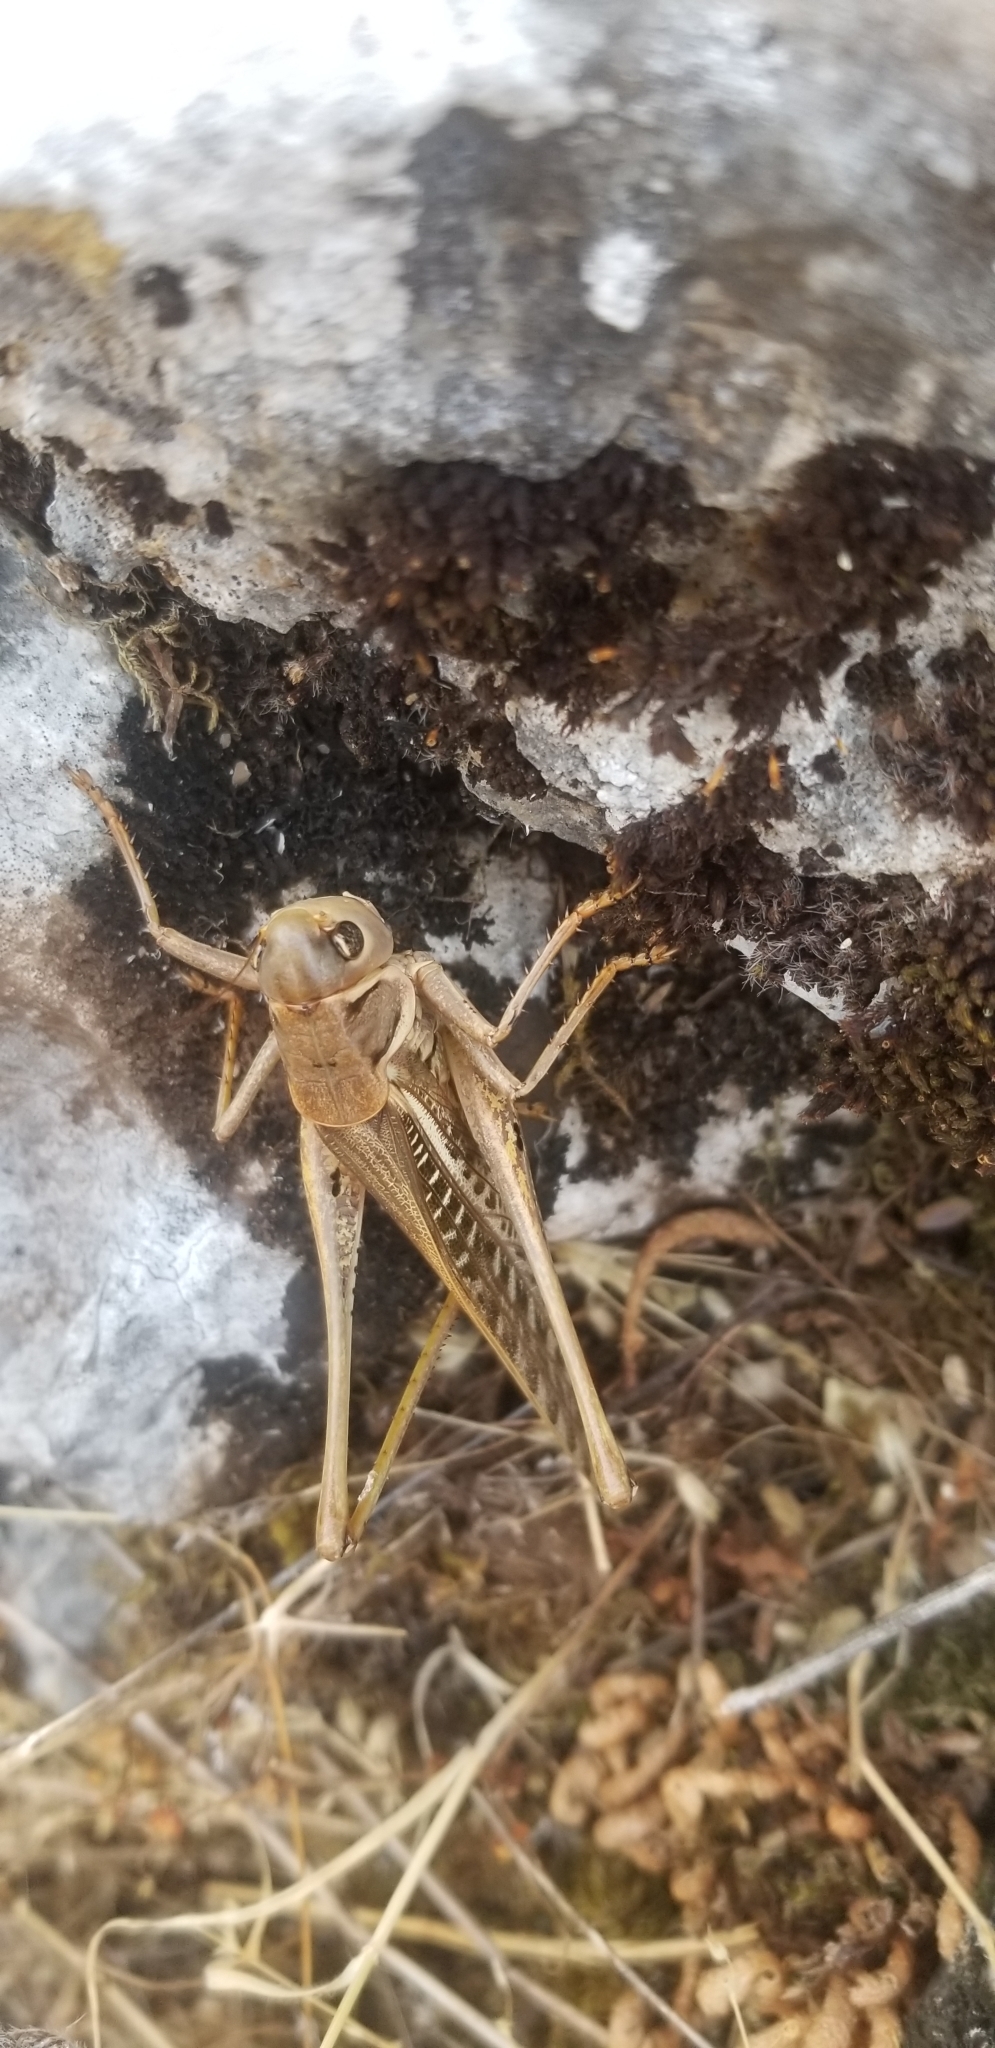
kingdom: Animalia
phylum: Arthropoda
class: Insecta
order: Orthoptera
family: Tettigoniidae
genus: Decticus
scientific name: Decticus albifrons
